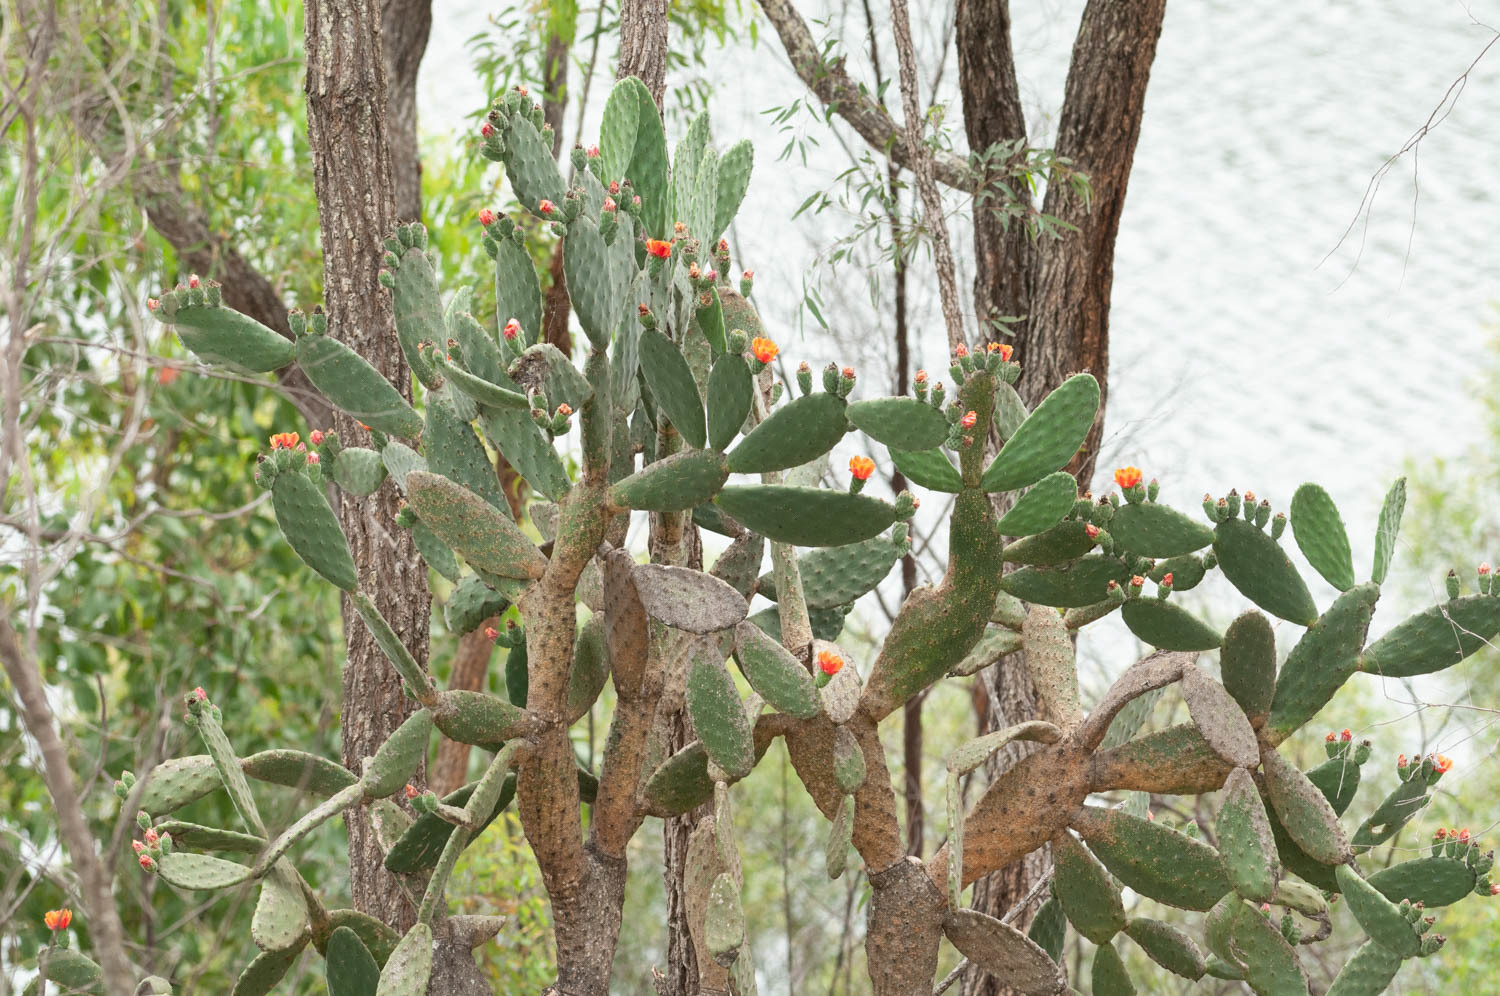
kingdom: Plantae
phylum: Tracheophyta
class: Magnoliopsida
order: Caryophyllales
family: Cactaceae
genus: Opuntia
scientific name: Opuntia tomentosa
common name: Woollyjoint pricklypear
